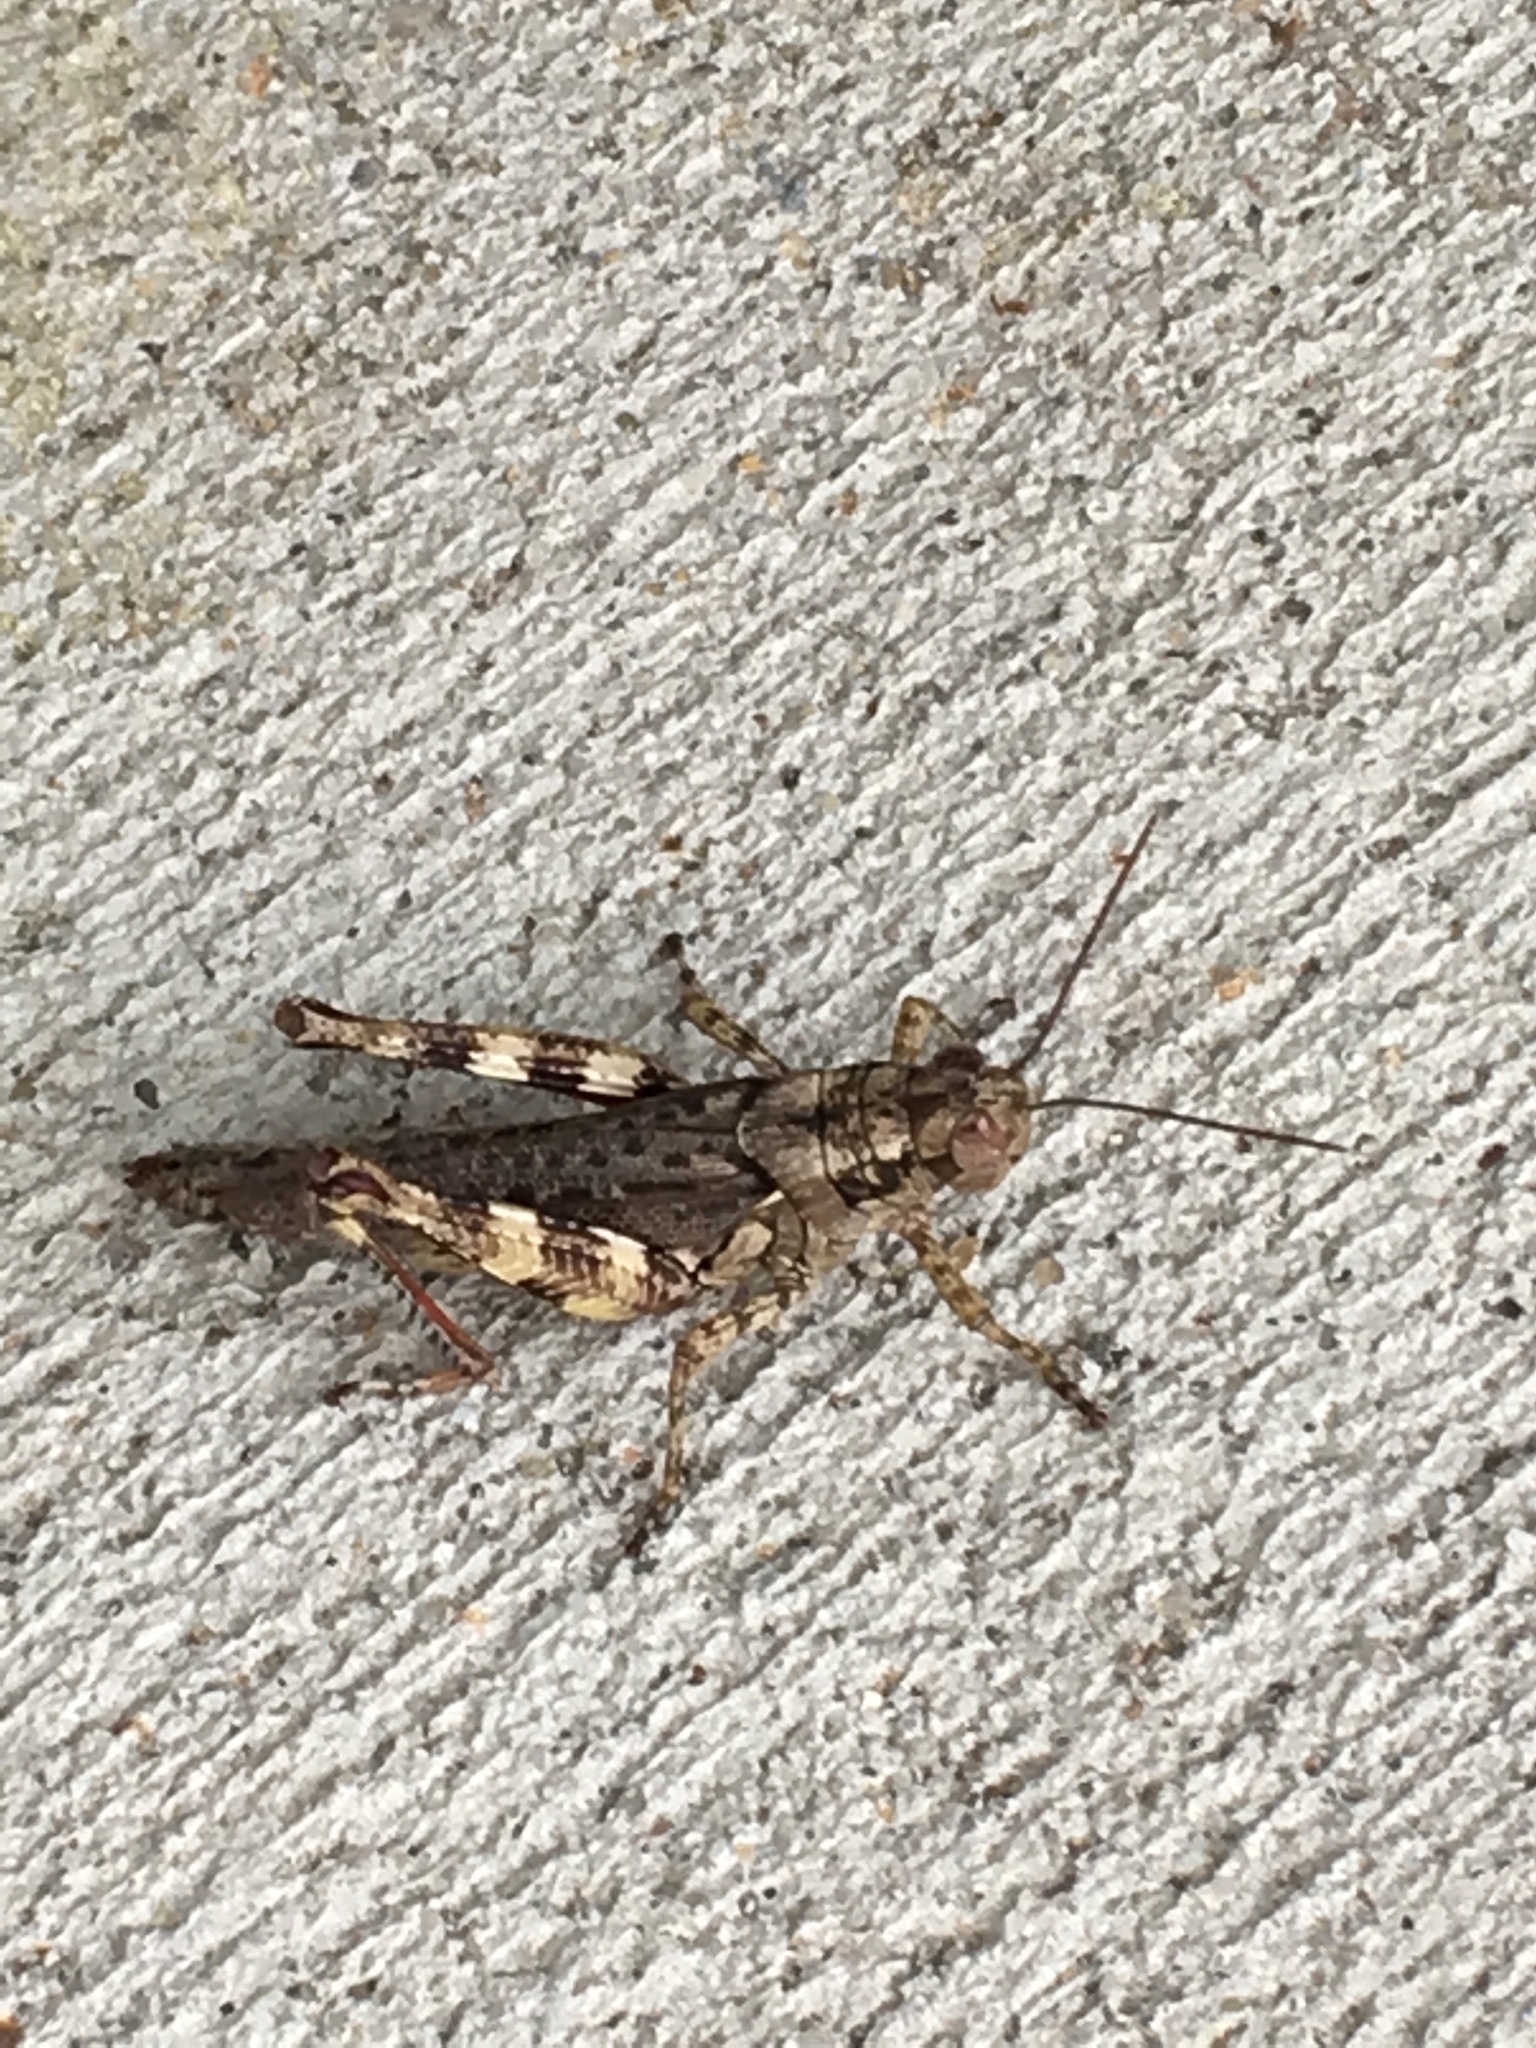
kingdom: Animalia
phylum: Arthropoda
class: Insecta
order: Orthoptera
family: Acrididae
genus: Melanoplus
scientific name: Melanoplus punctulatus
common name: Pine-tree spur-throat grasshopper
